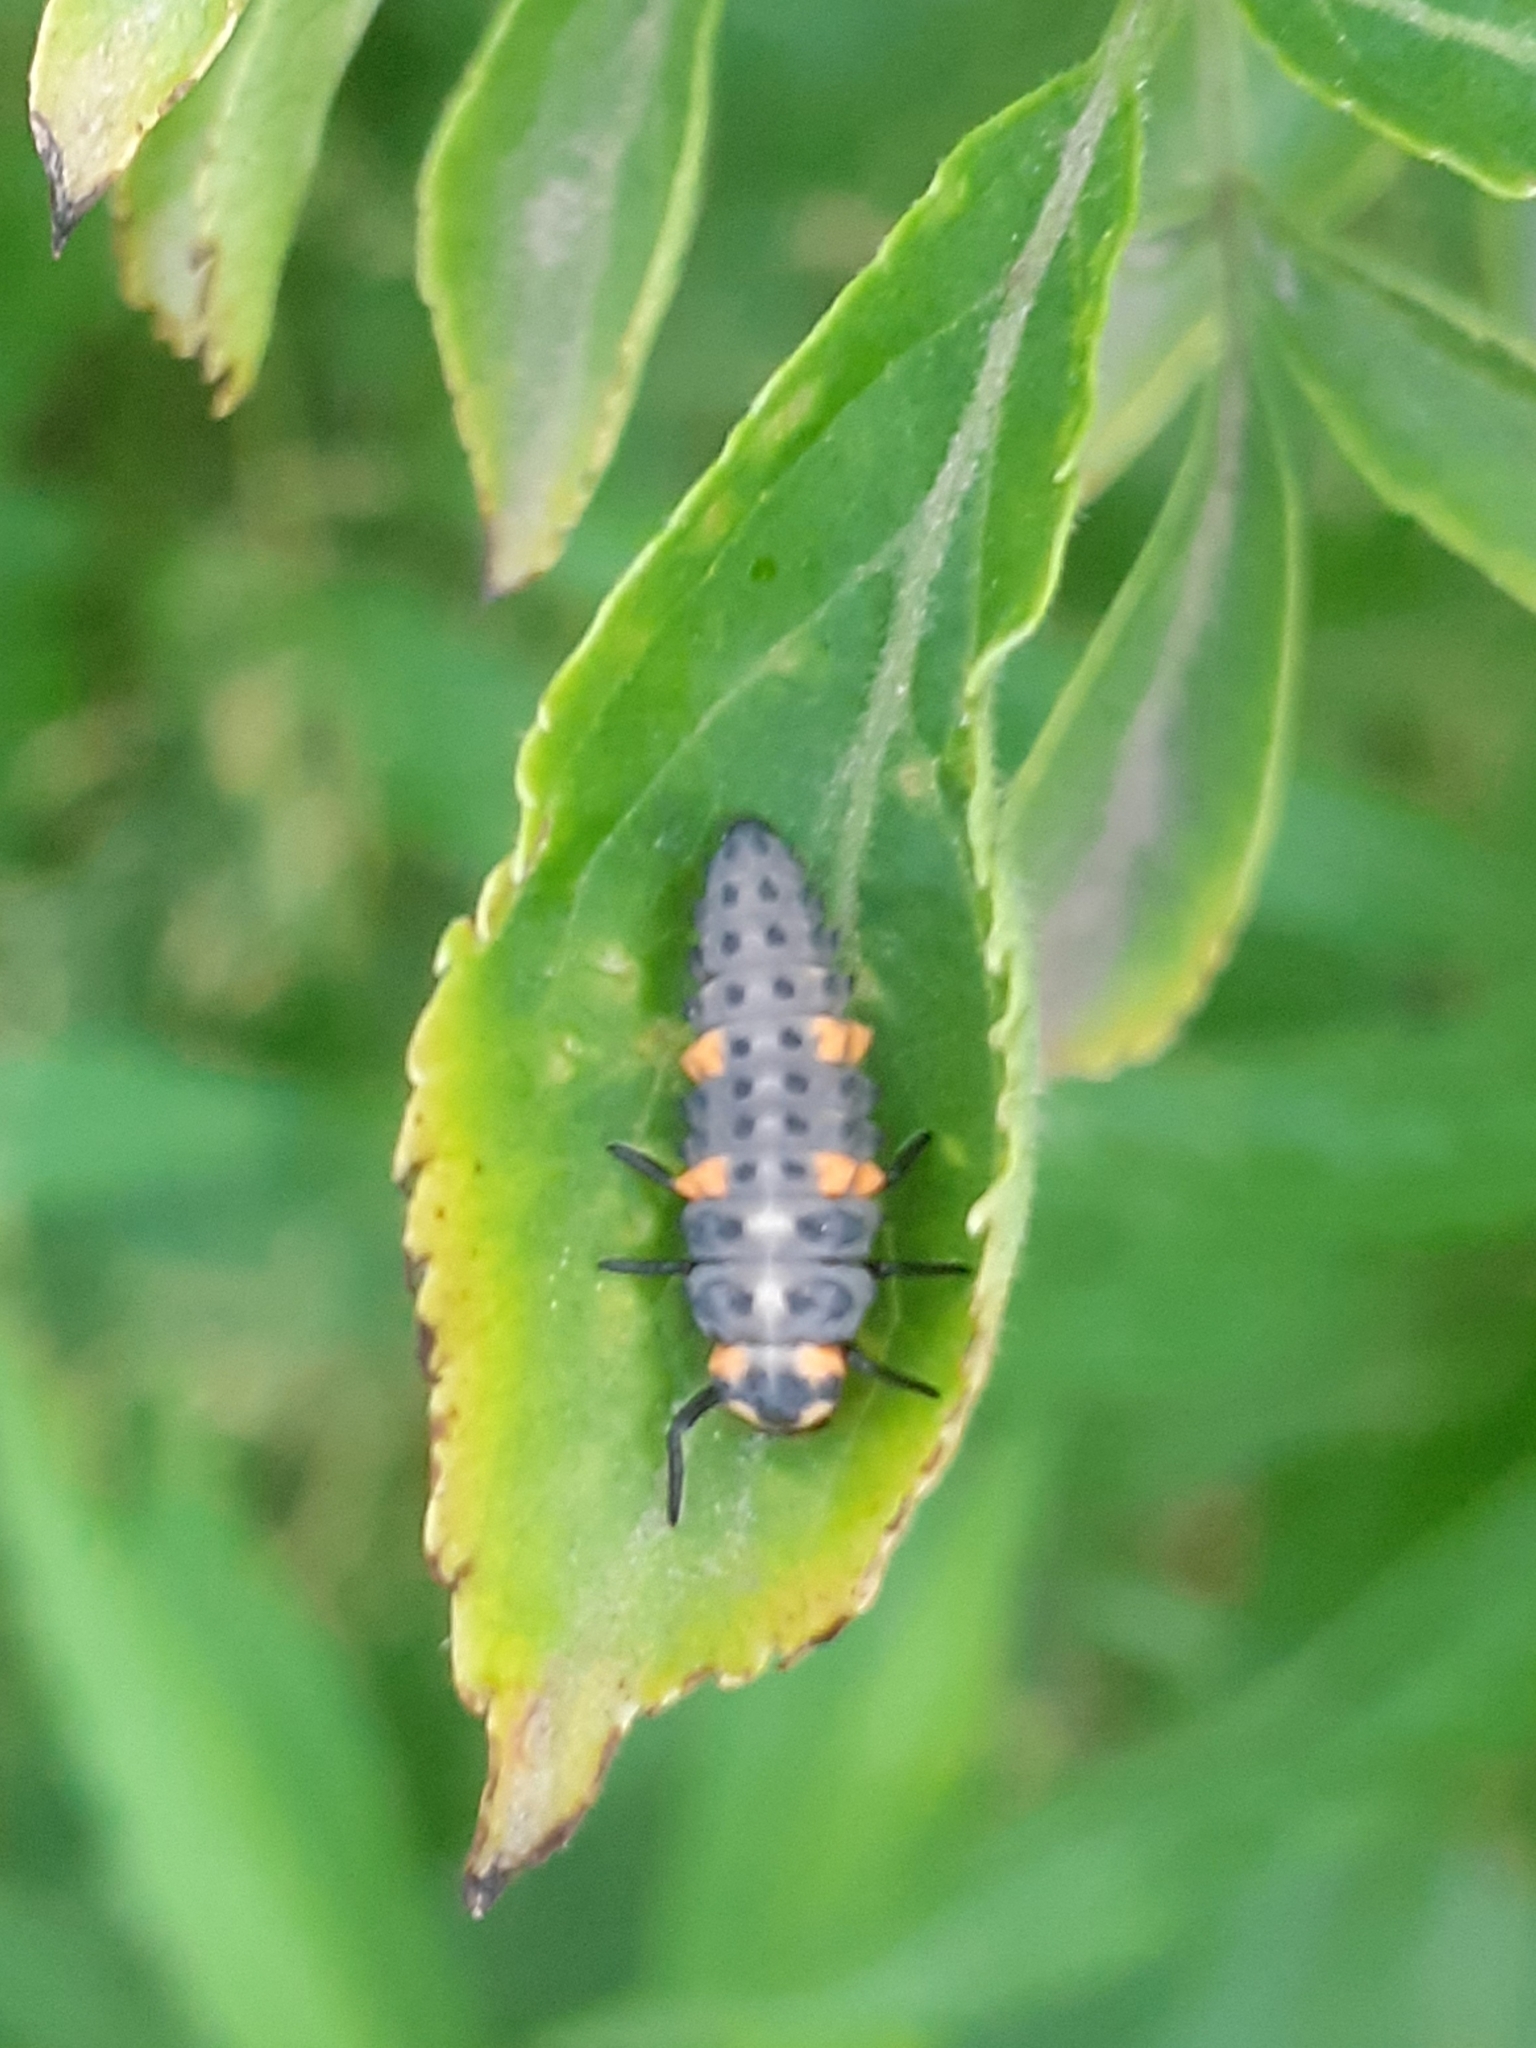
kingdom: Animalia
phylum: Arthropoda
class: Insecta
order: Coleoptera
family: Coccinellidae
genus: Coccinella
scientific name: Coccinella septempunctata
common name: Sevenspotted lady beetle
